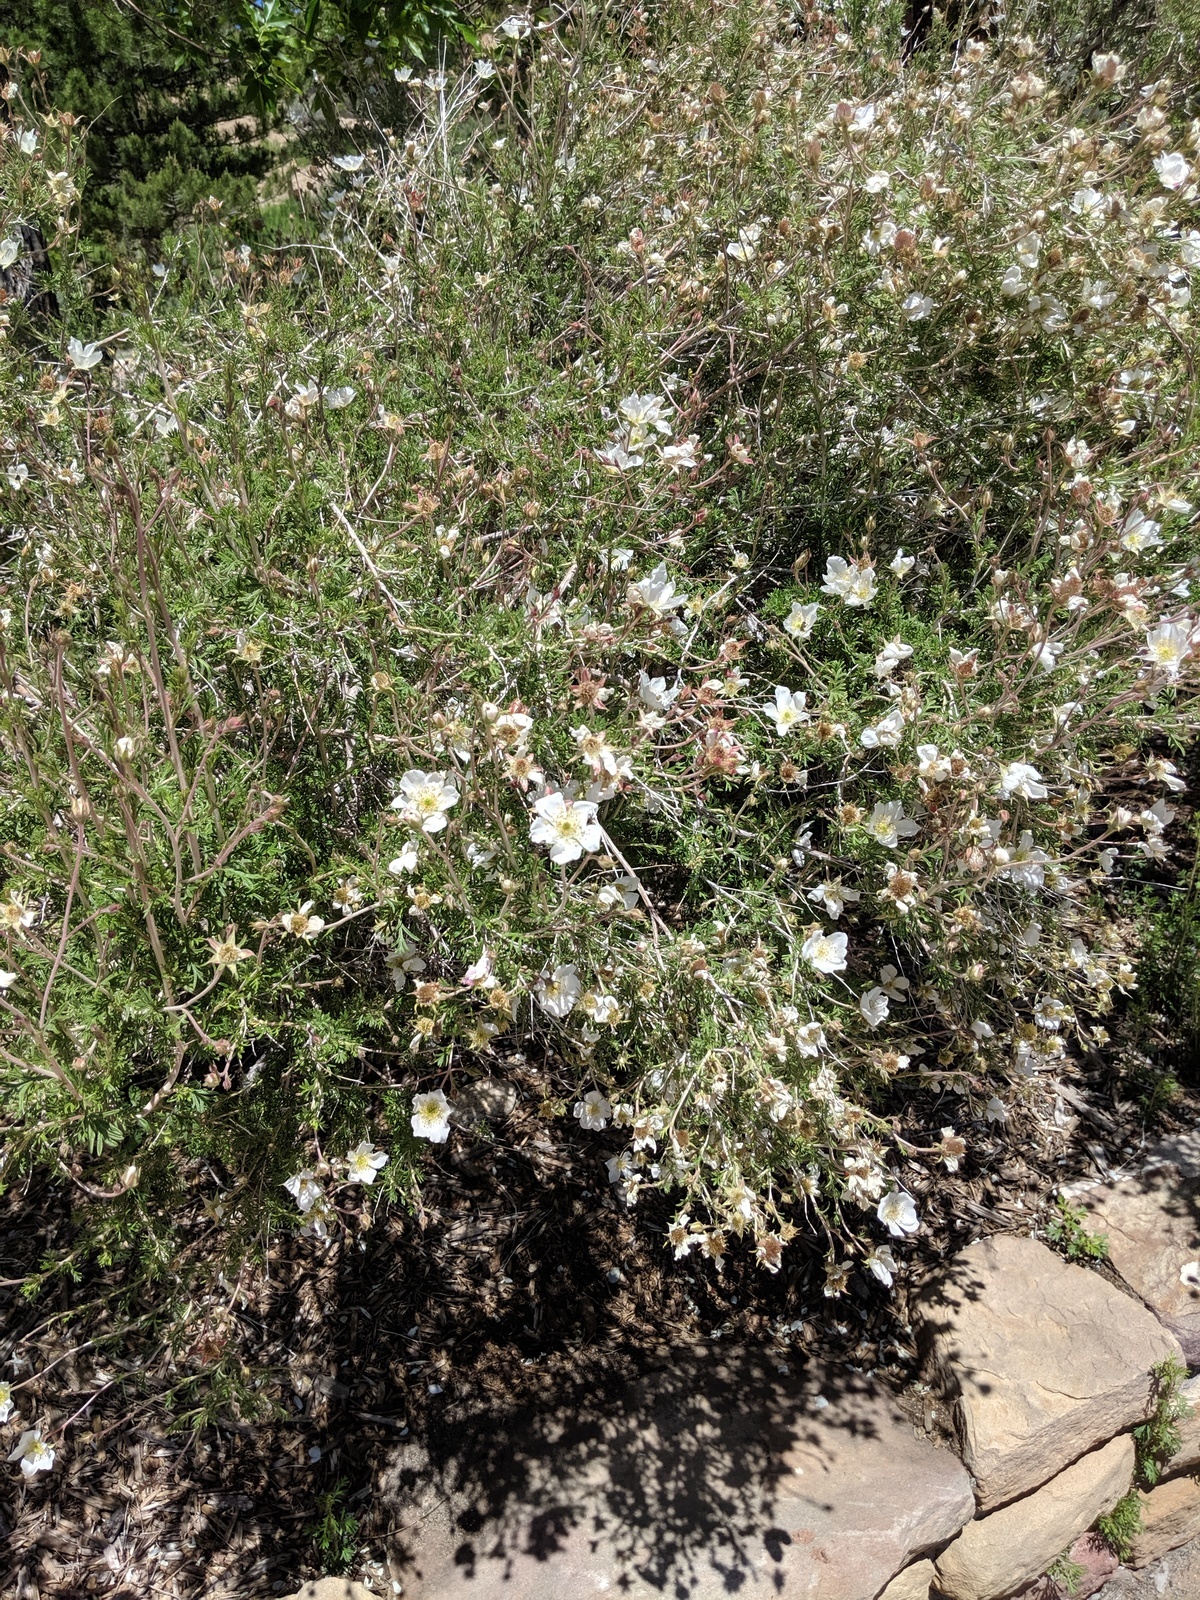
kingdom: Plantae
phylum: Tracheophyta
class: Magnoliopsida
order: Rosales
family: Rosaceae
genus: Fallugia
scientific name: Fallugia paradoxa
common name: Apache-plume
